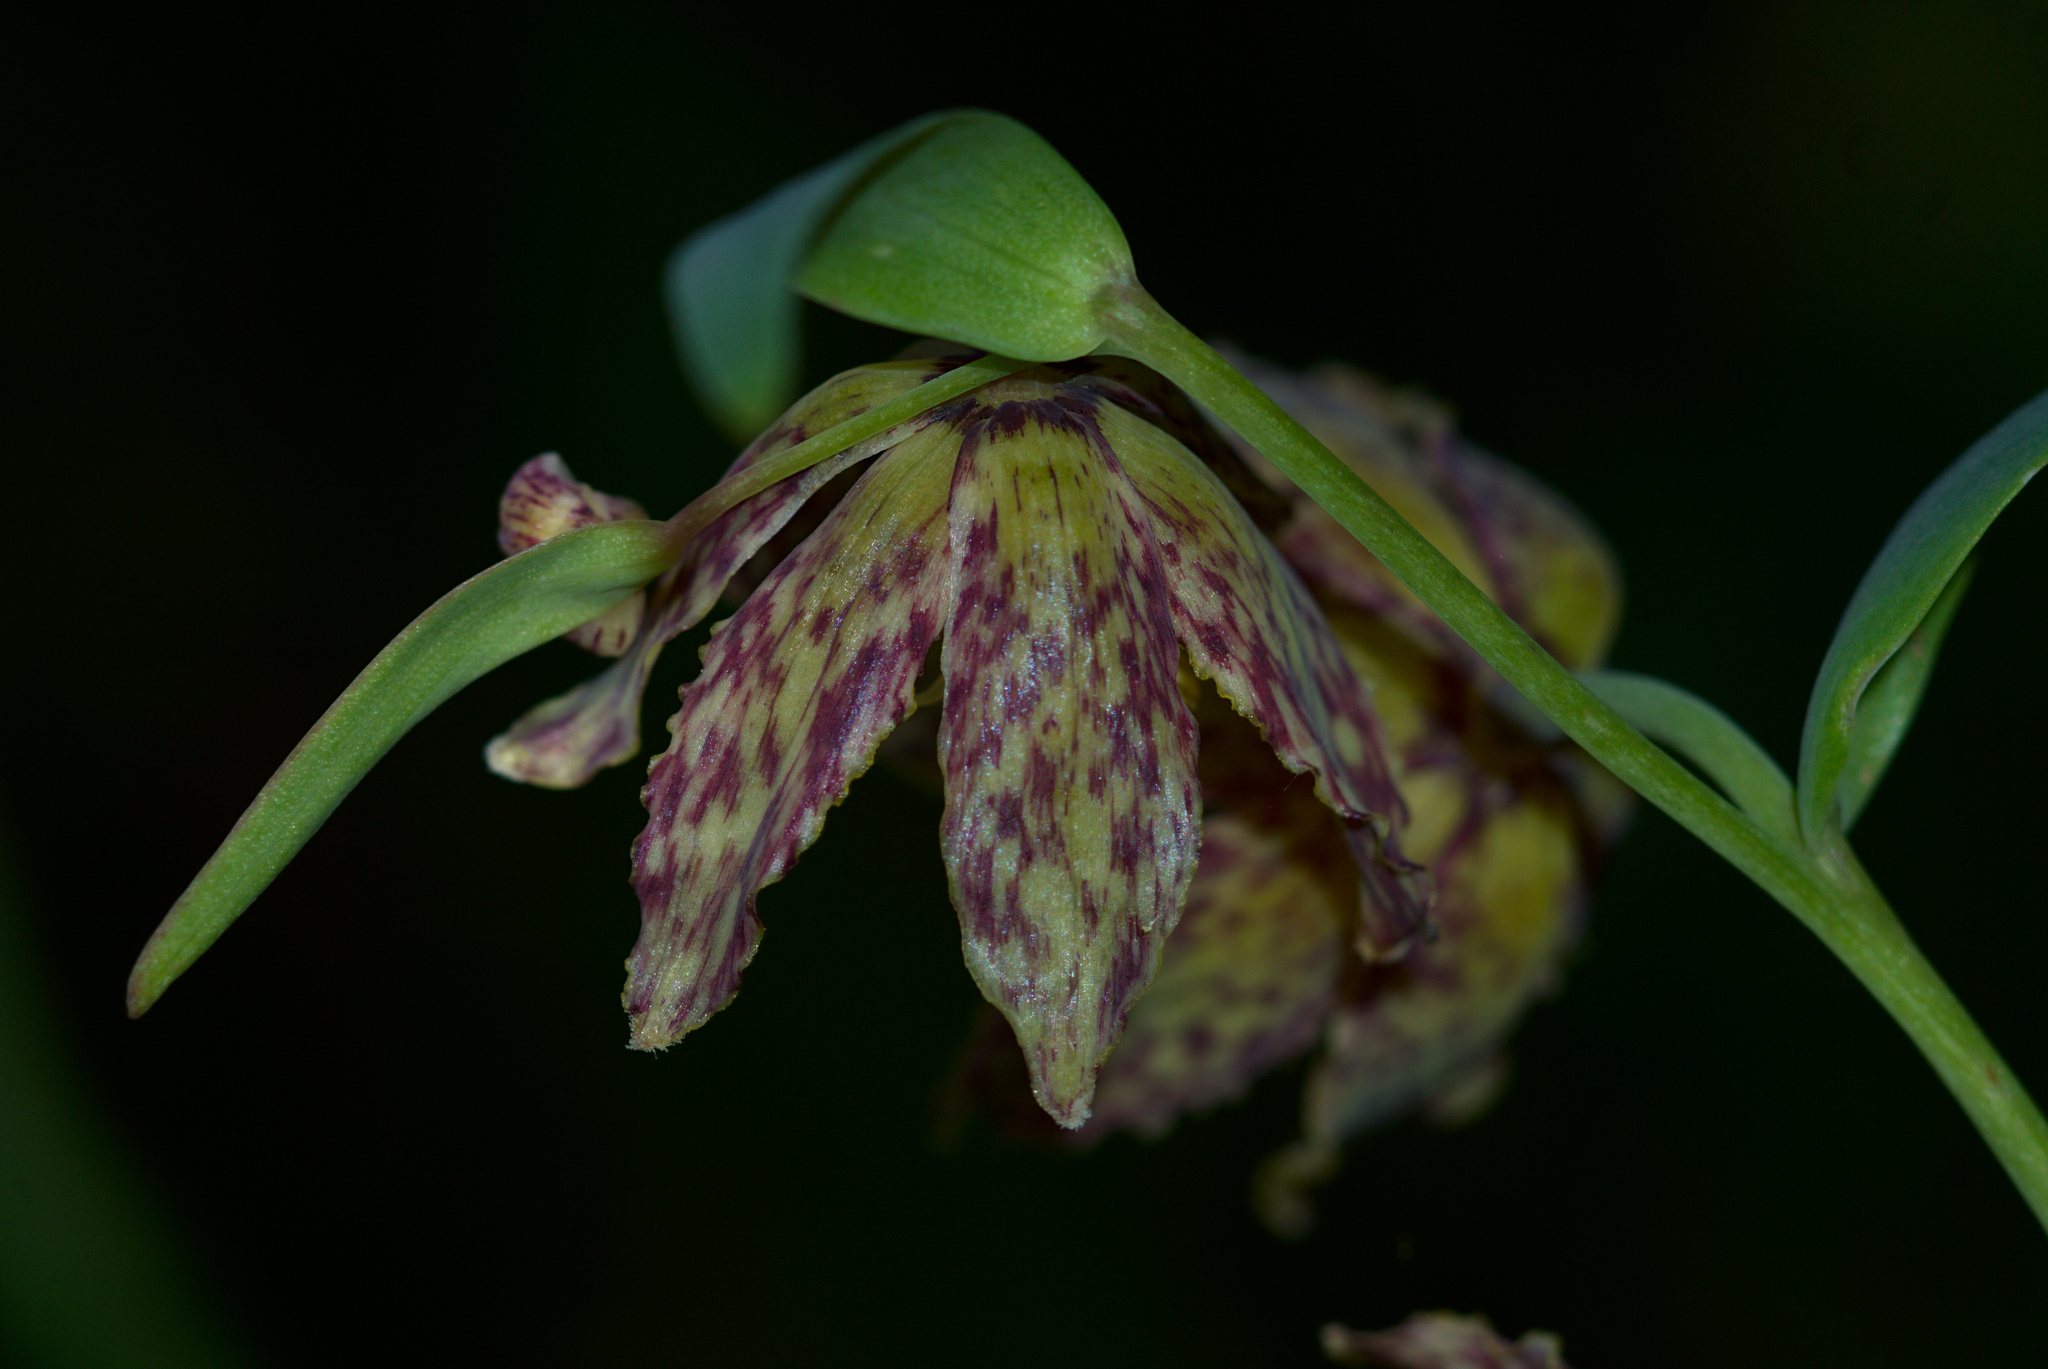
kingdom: Plantae
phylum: Tracheophyta
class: Liliopsida
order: Liliales
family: Liliaceae
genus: Fritillaria
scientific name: Fritillaria affinis
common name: Ojai fritillary
